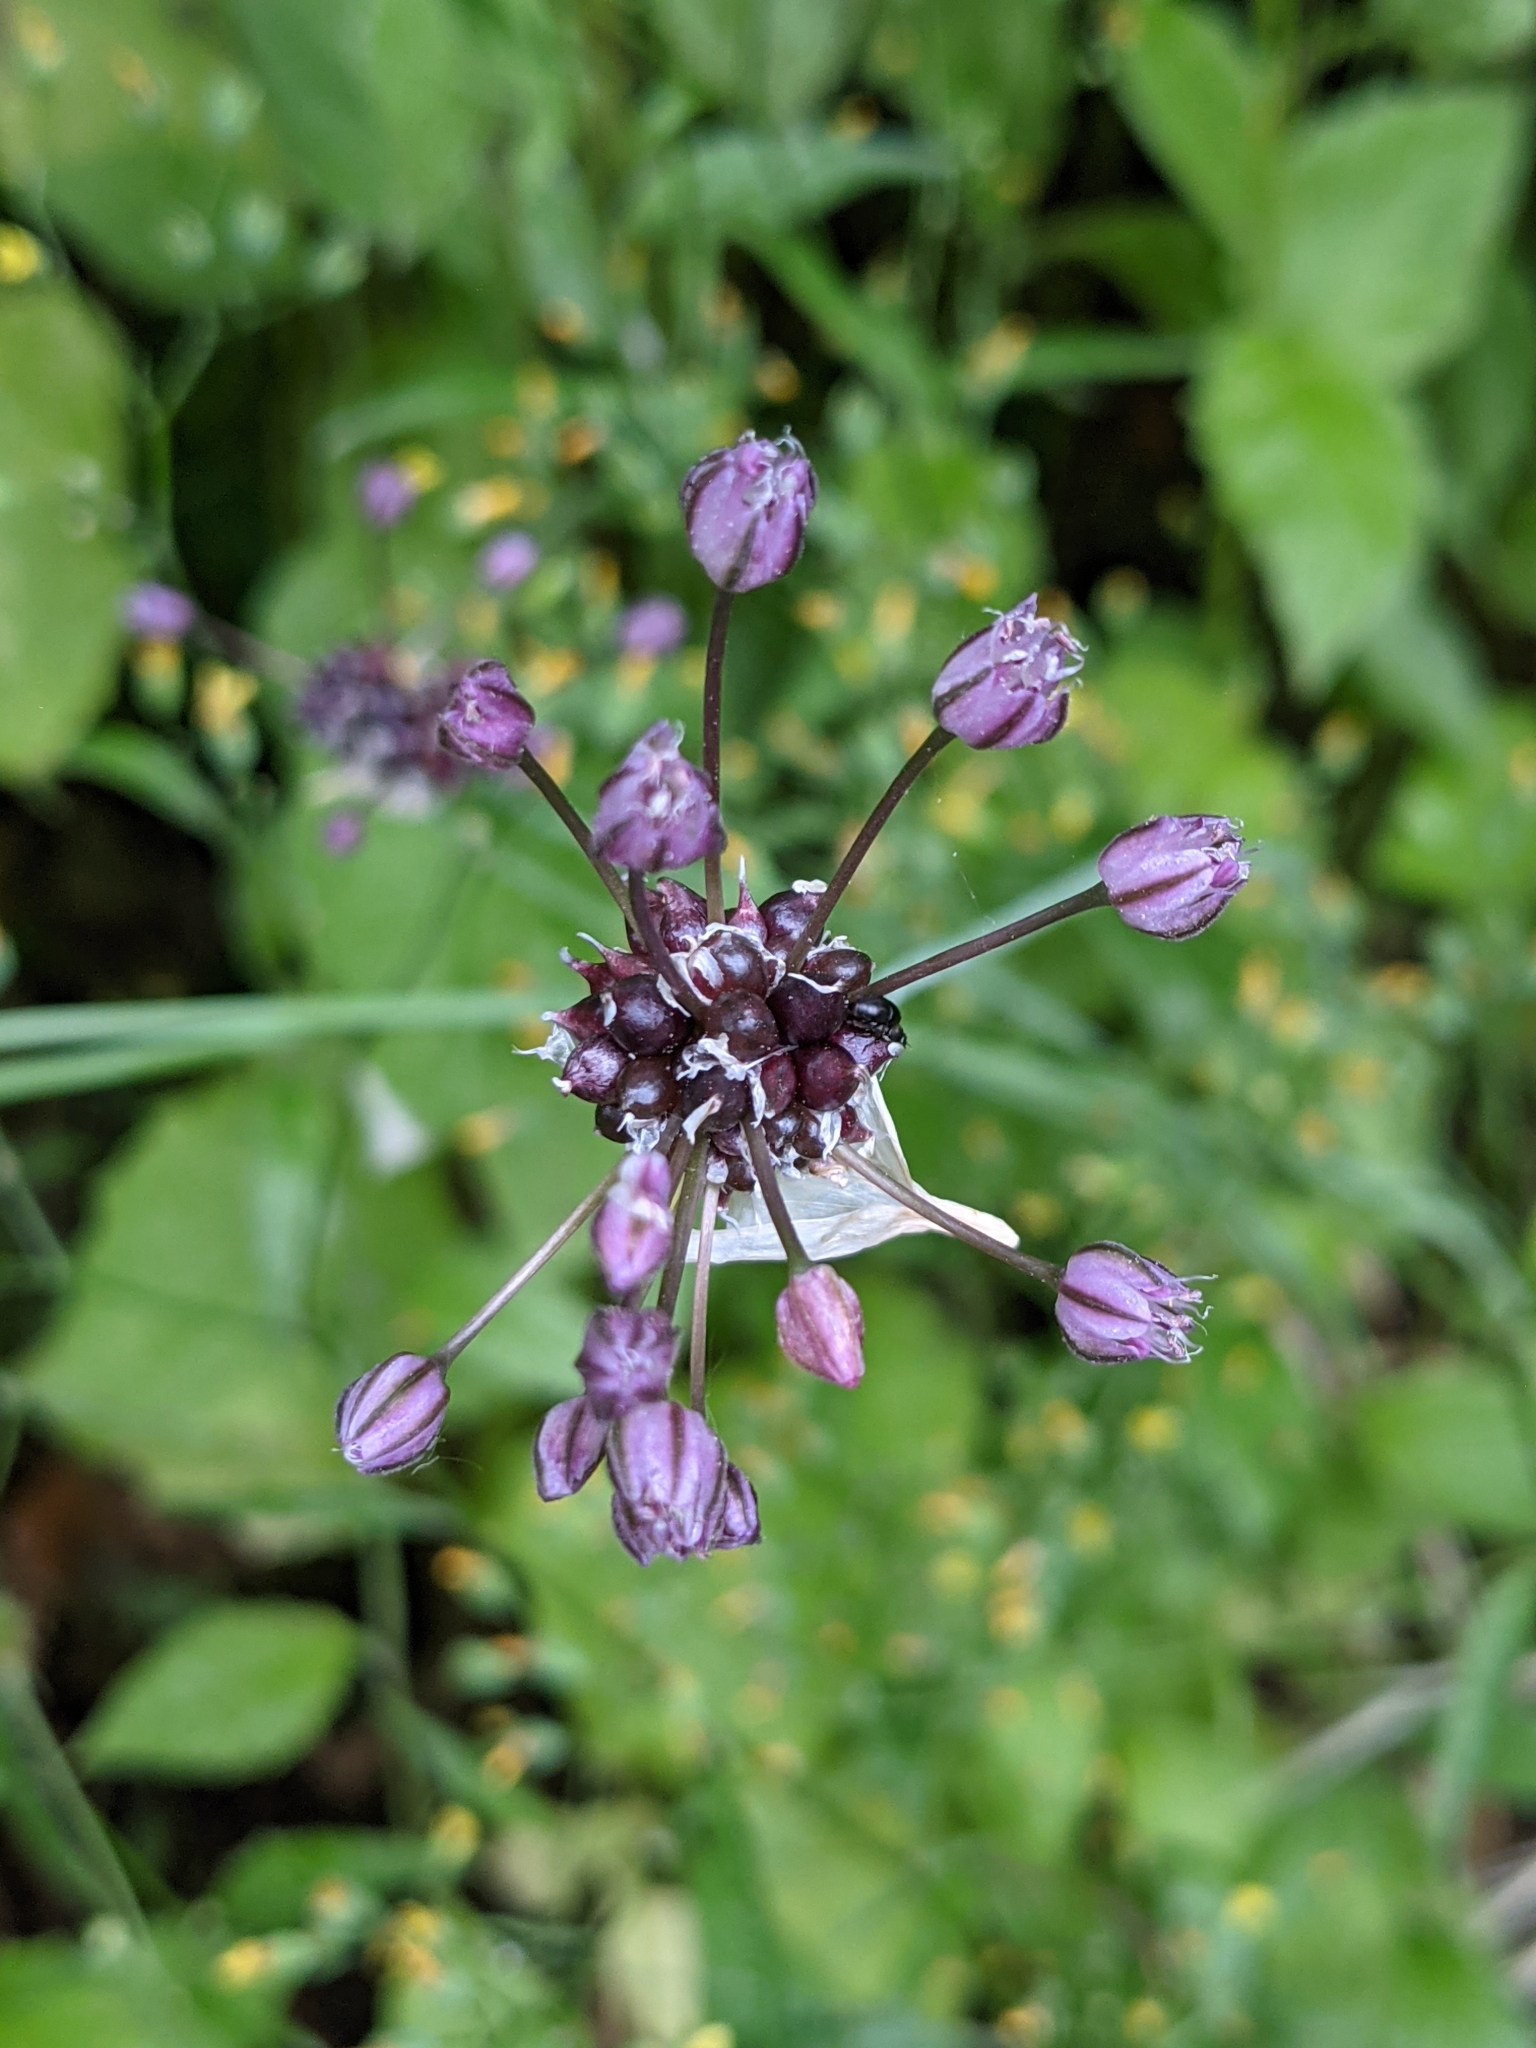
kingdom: Plantae
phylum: Tracheophyta
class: Liliopsida
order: Asparagales
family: Amaryllidaceae
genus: Allium
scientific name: Allium scorodoprasum
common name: Sand leek
